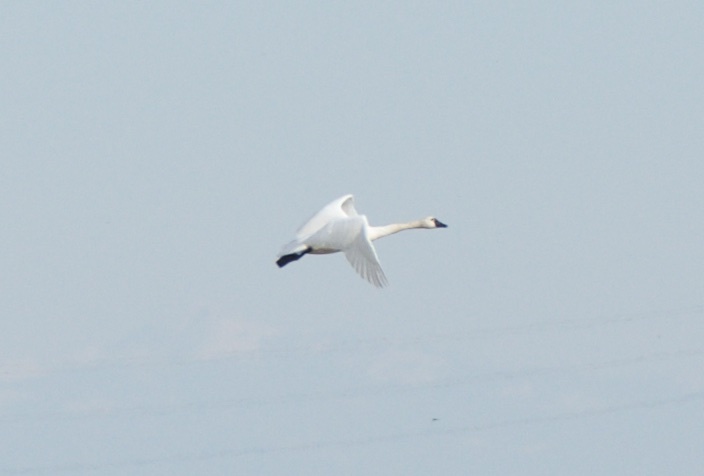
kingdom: Animalia
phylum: Chordata
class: Aves
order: Anseriformes
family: Anatidae
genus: Cygnus
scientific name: Cygnus columbianus
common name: Tundra swan
